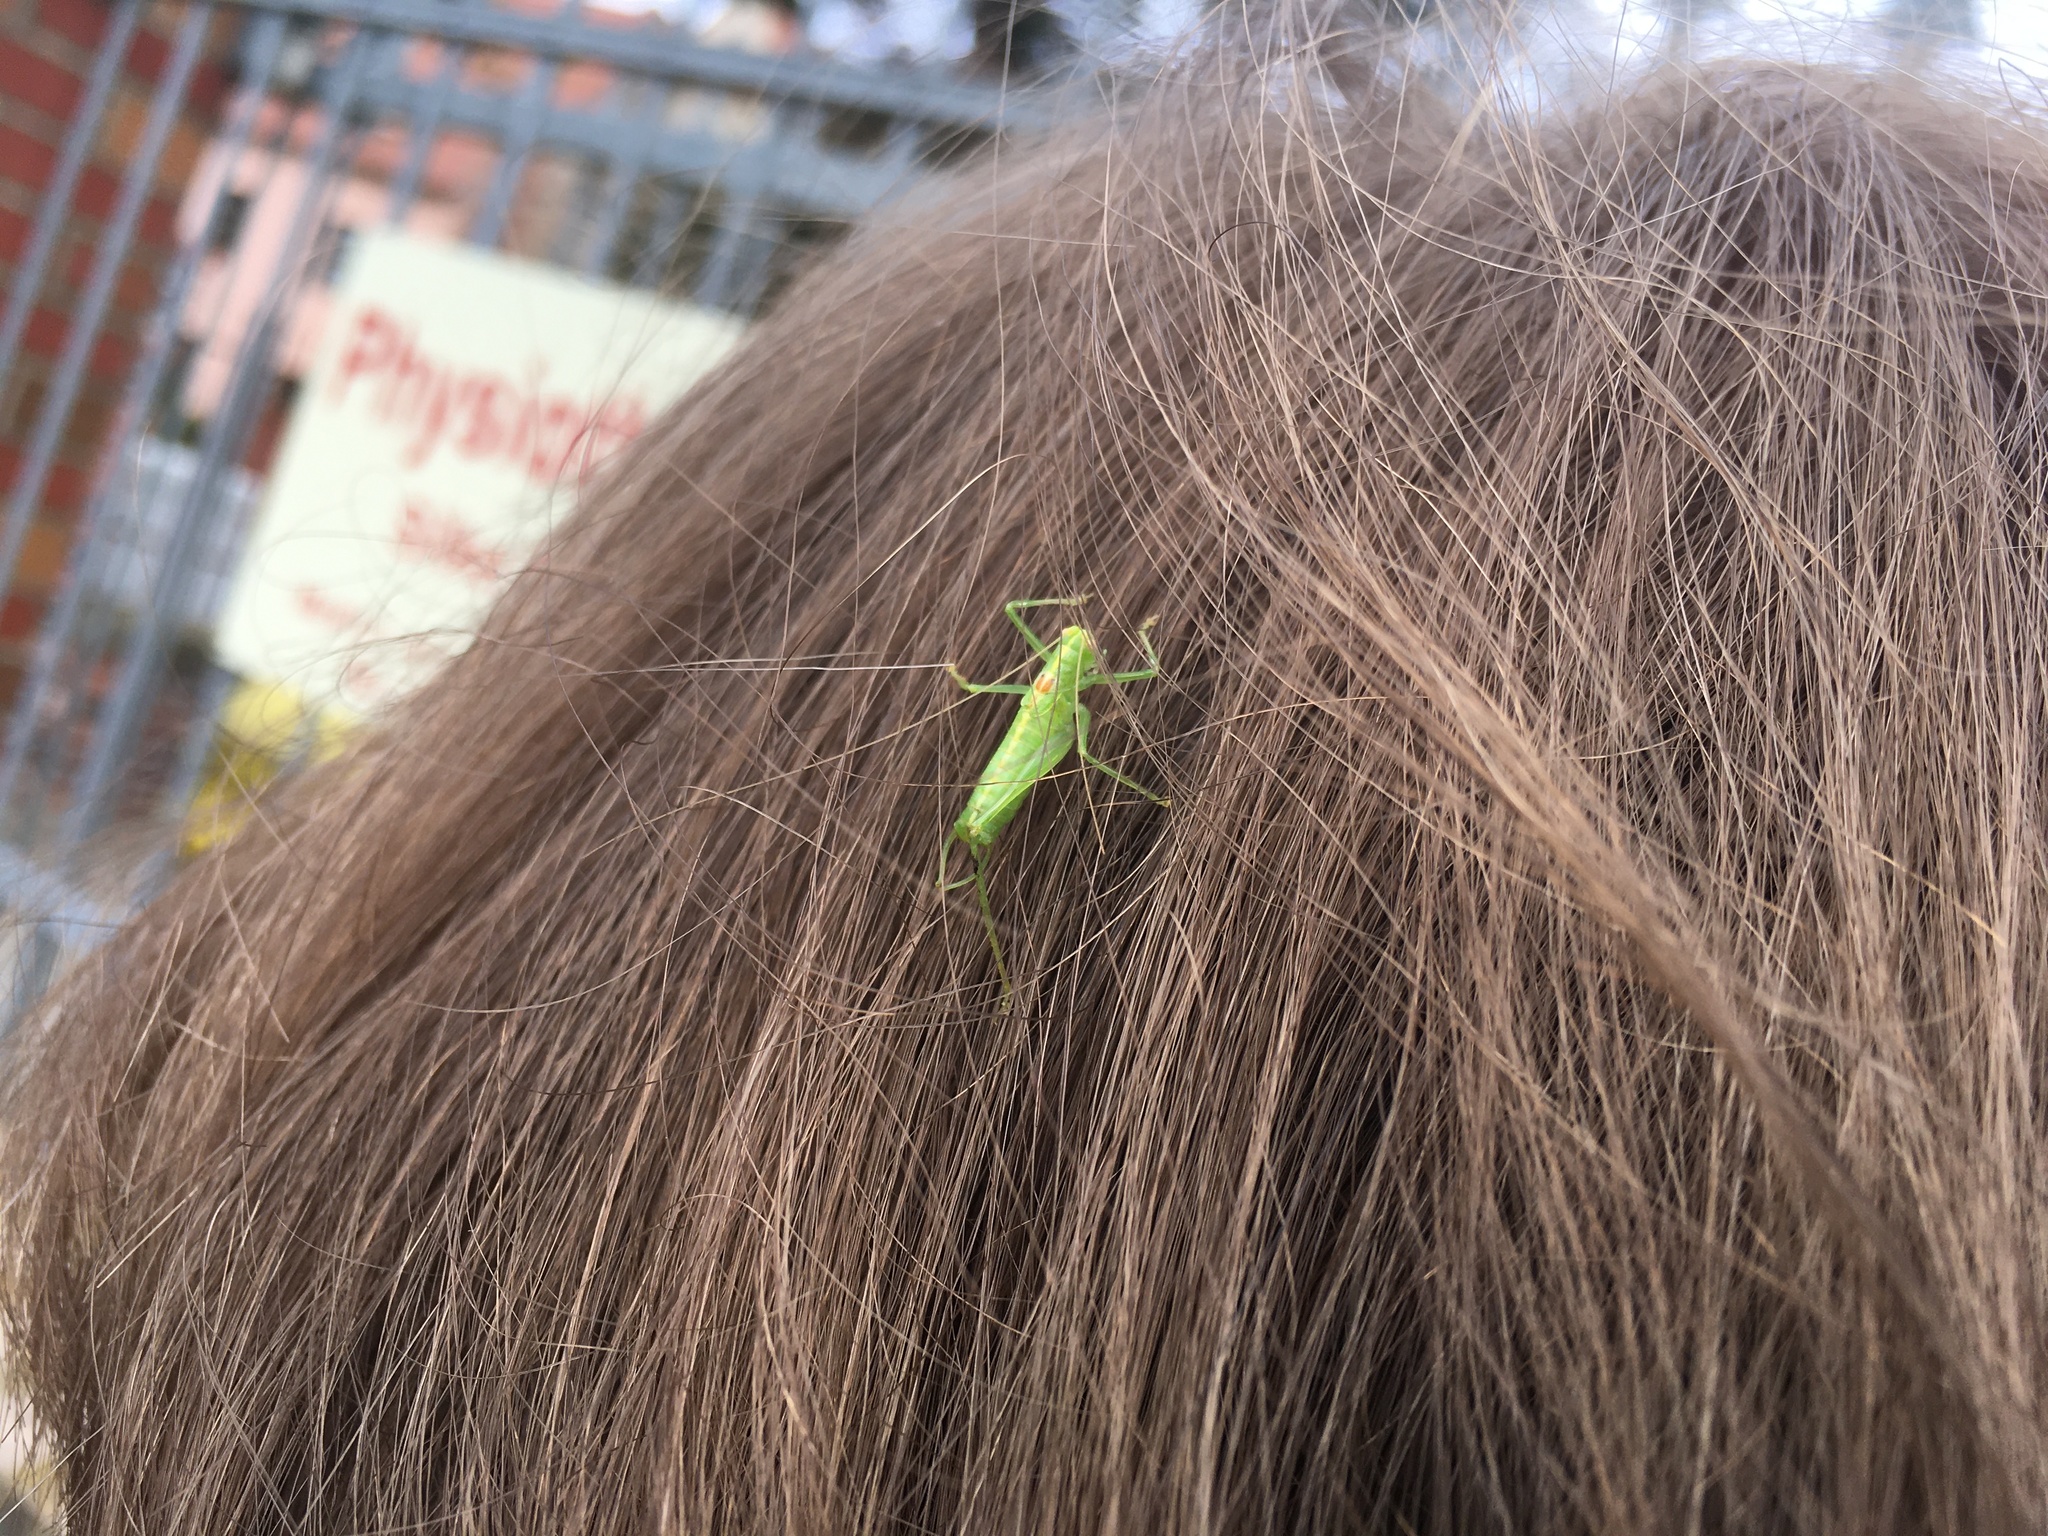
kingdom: Animalia
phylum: Arthropoda
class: Insecta
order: Orthoptera
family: Tettigoniidae
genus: Meconema
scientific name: Meconema meridionale
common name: Southern oak bush-cricket
